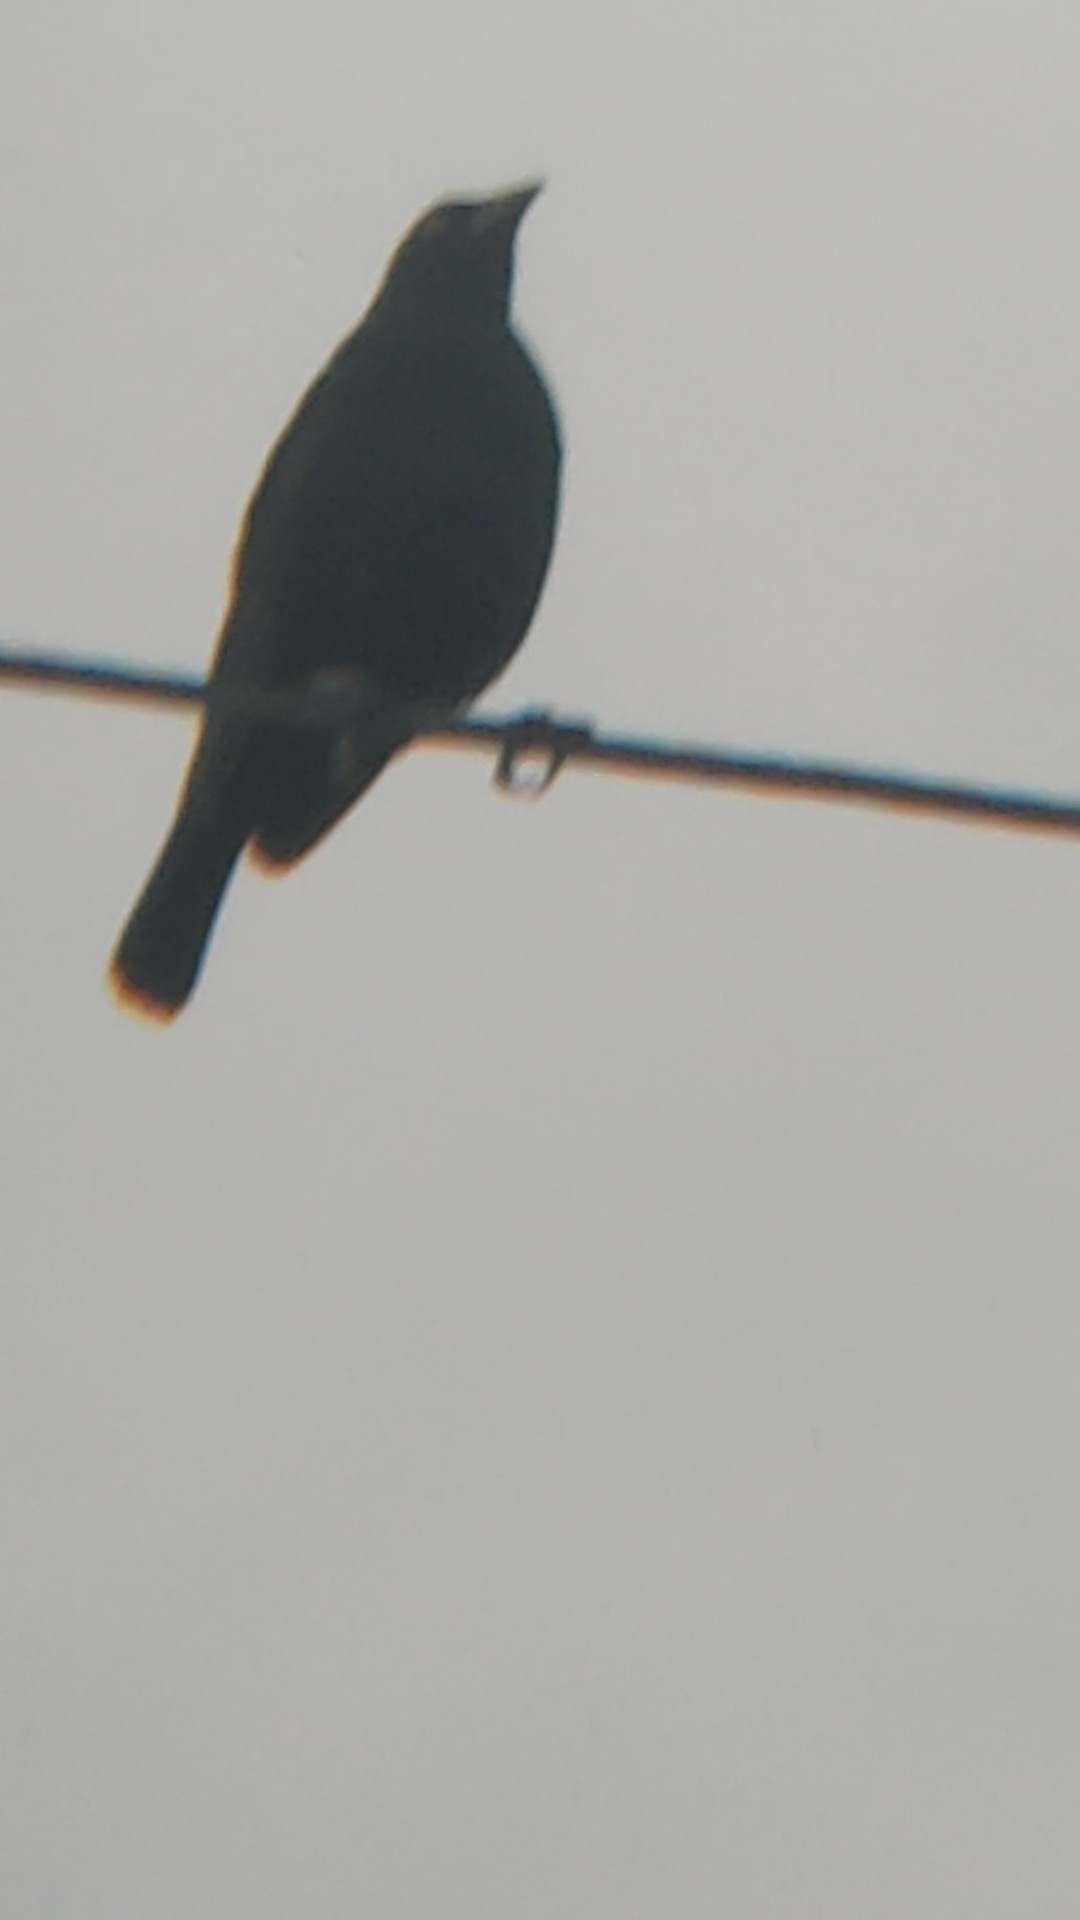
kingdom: Animalia
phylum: Chordata
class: Aves
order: Passeriformes
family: Icteridae
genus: Molothrus
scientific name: Molothrus aeneus
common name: Bronzed cowbird
